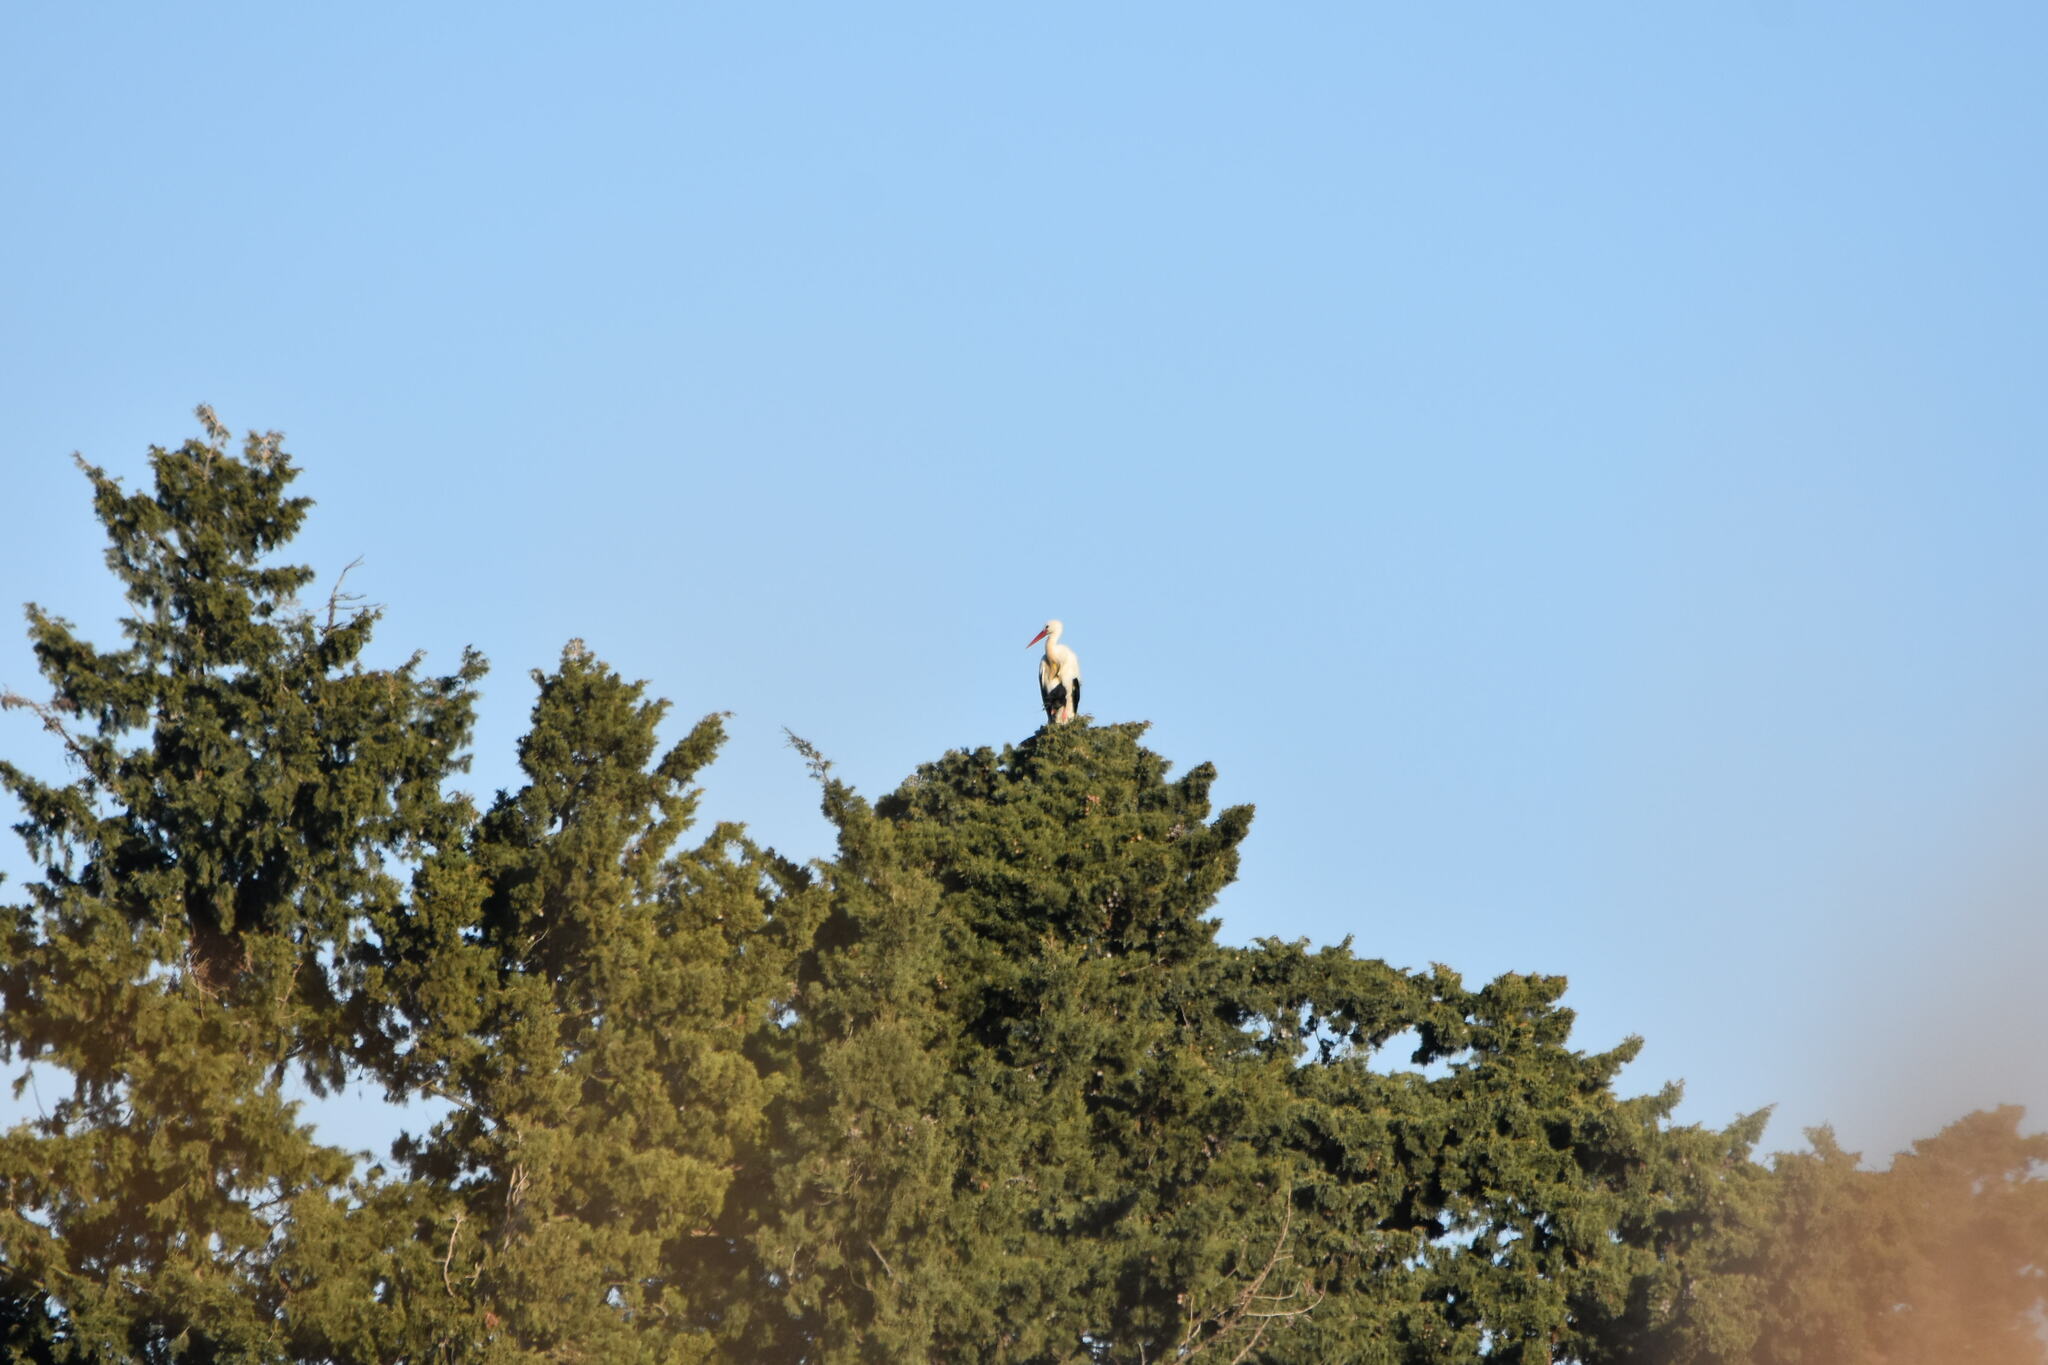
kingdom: Animalia
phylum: Chordata
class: Aves
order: Ciconiiformes
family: Ciconiidae
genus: Ciconia
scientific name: Ciconia ciconia
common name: White stork
